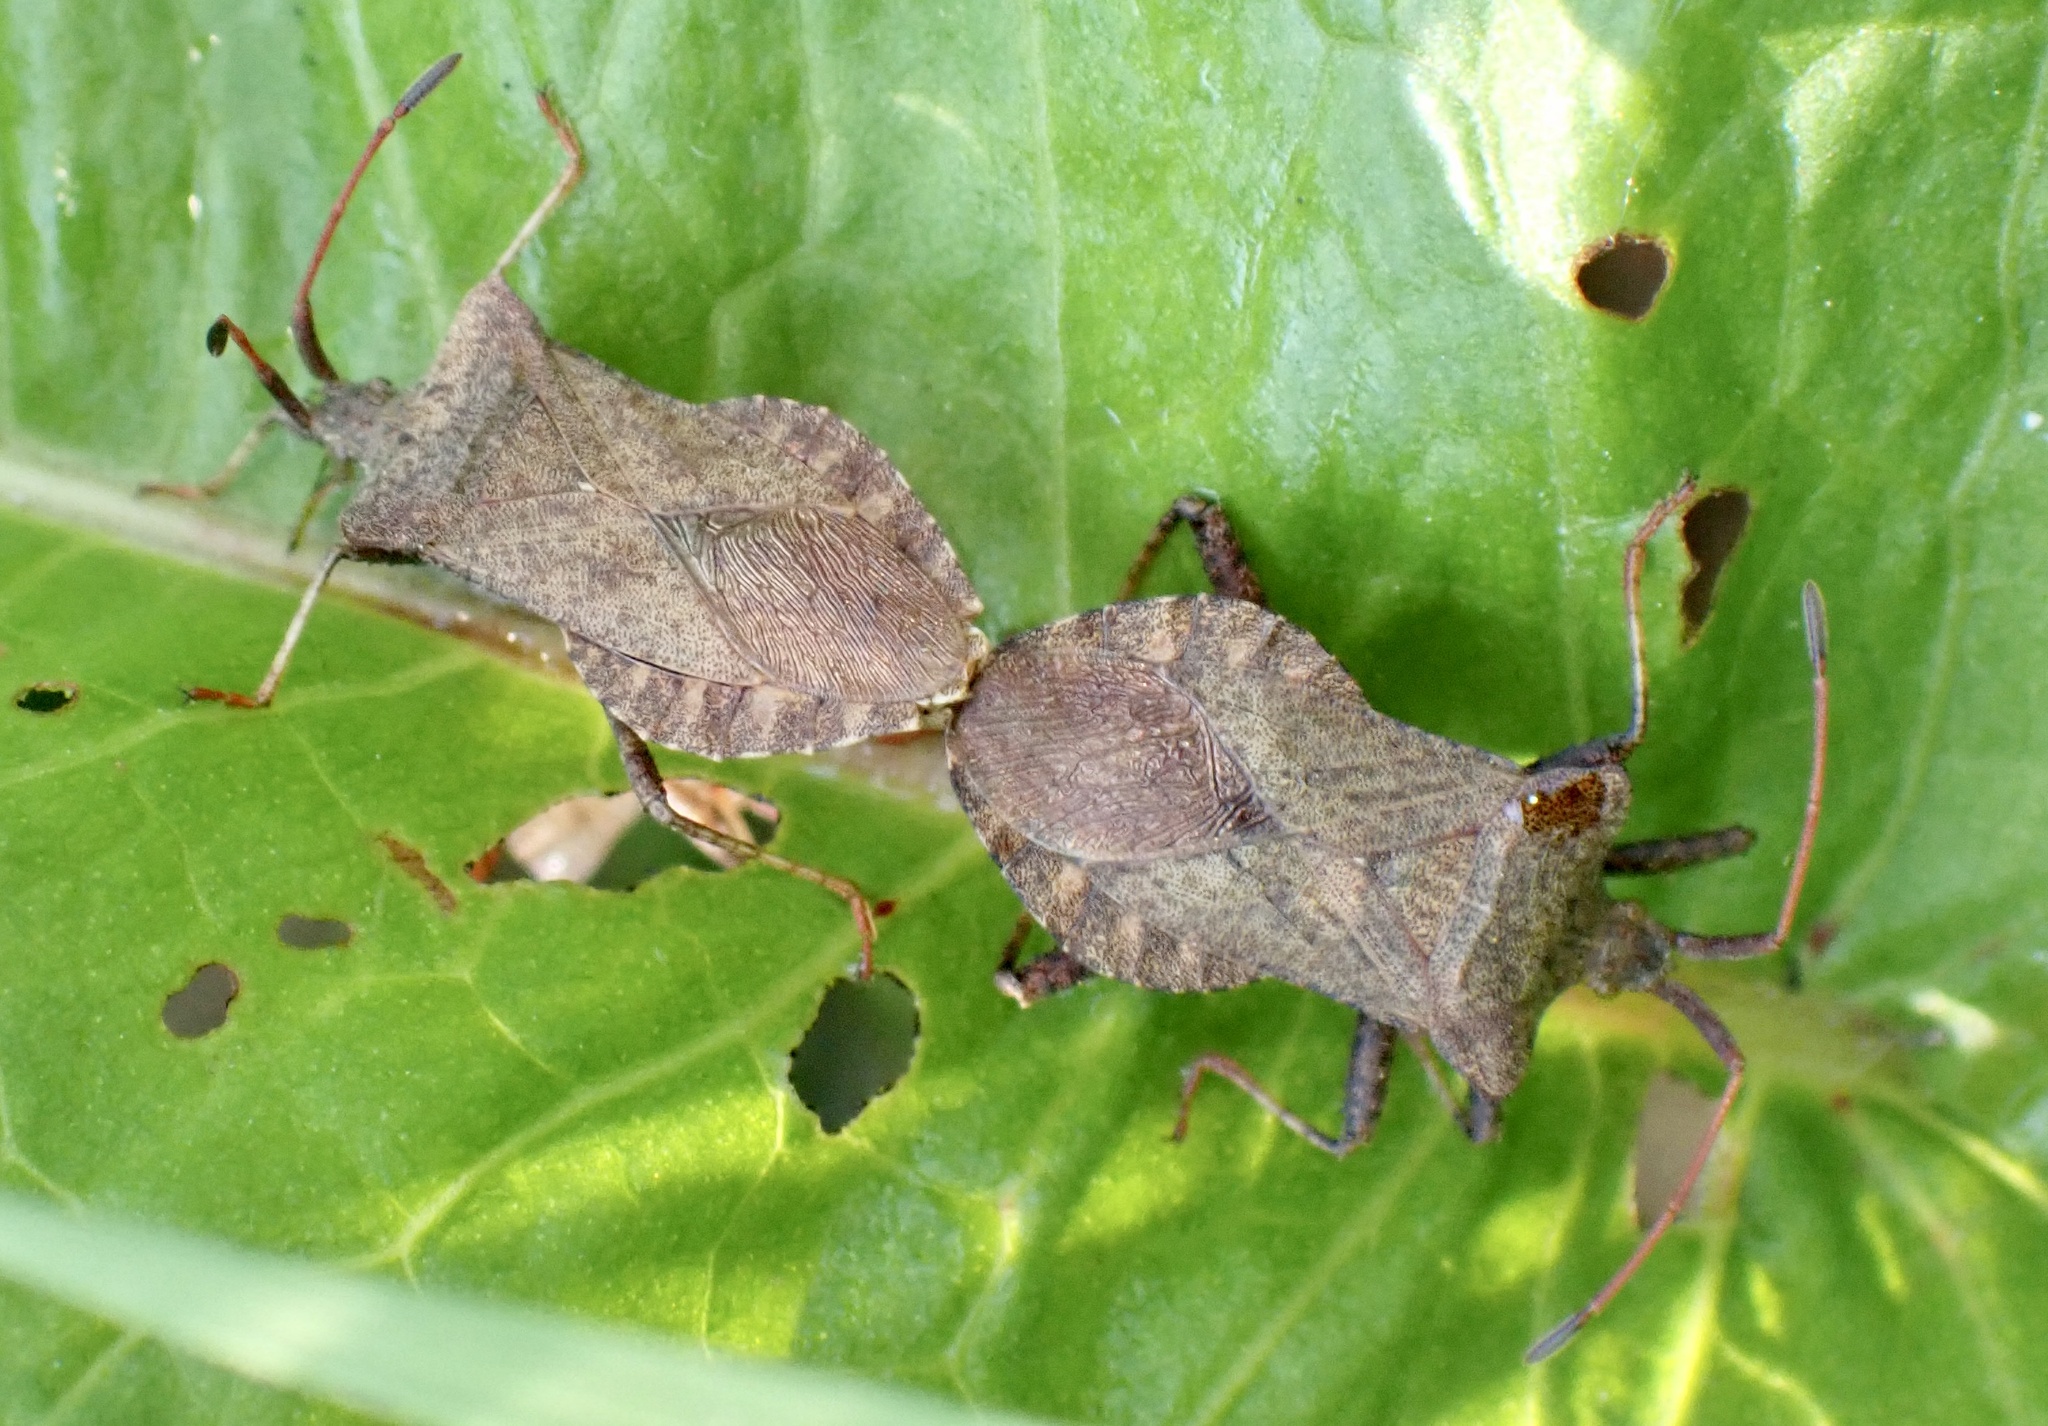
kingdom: Animalia
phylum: Arthropoda
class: Insecta
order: Hemiptera
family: Coreidae
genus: Coreus
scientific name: Coreus marginatus
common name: Dock bug
